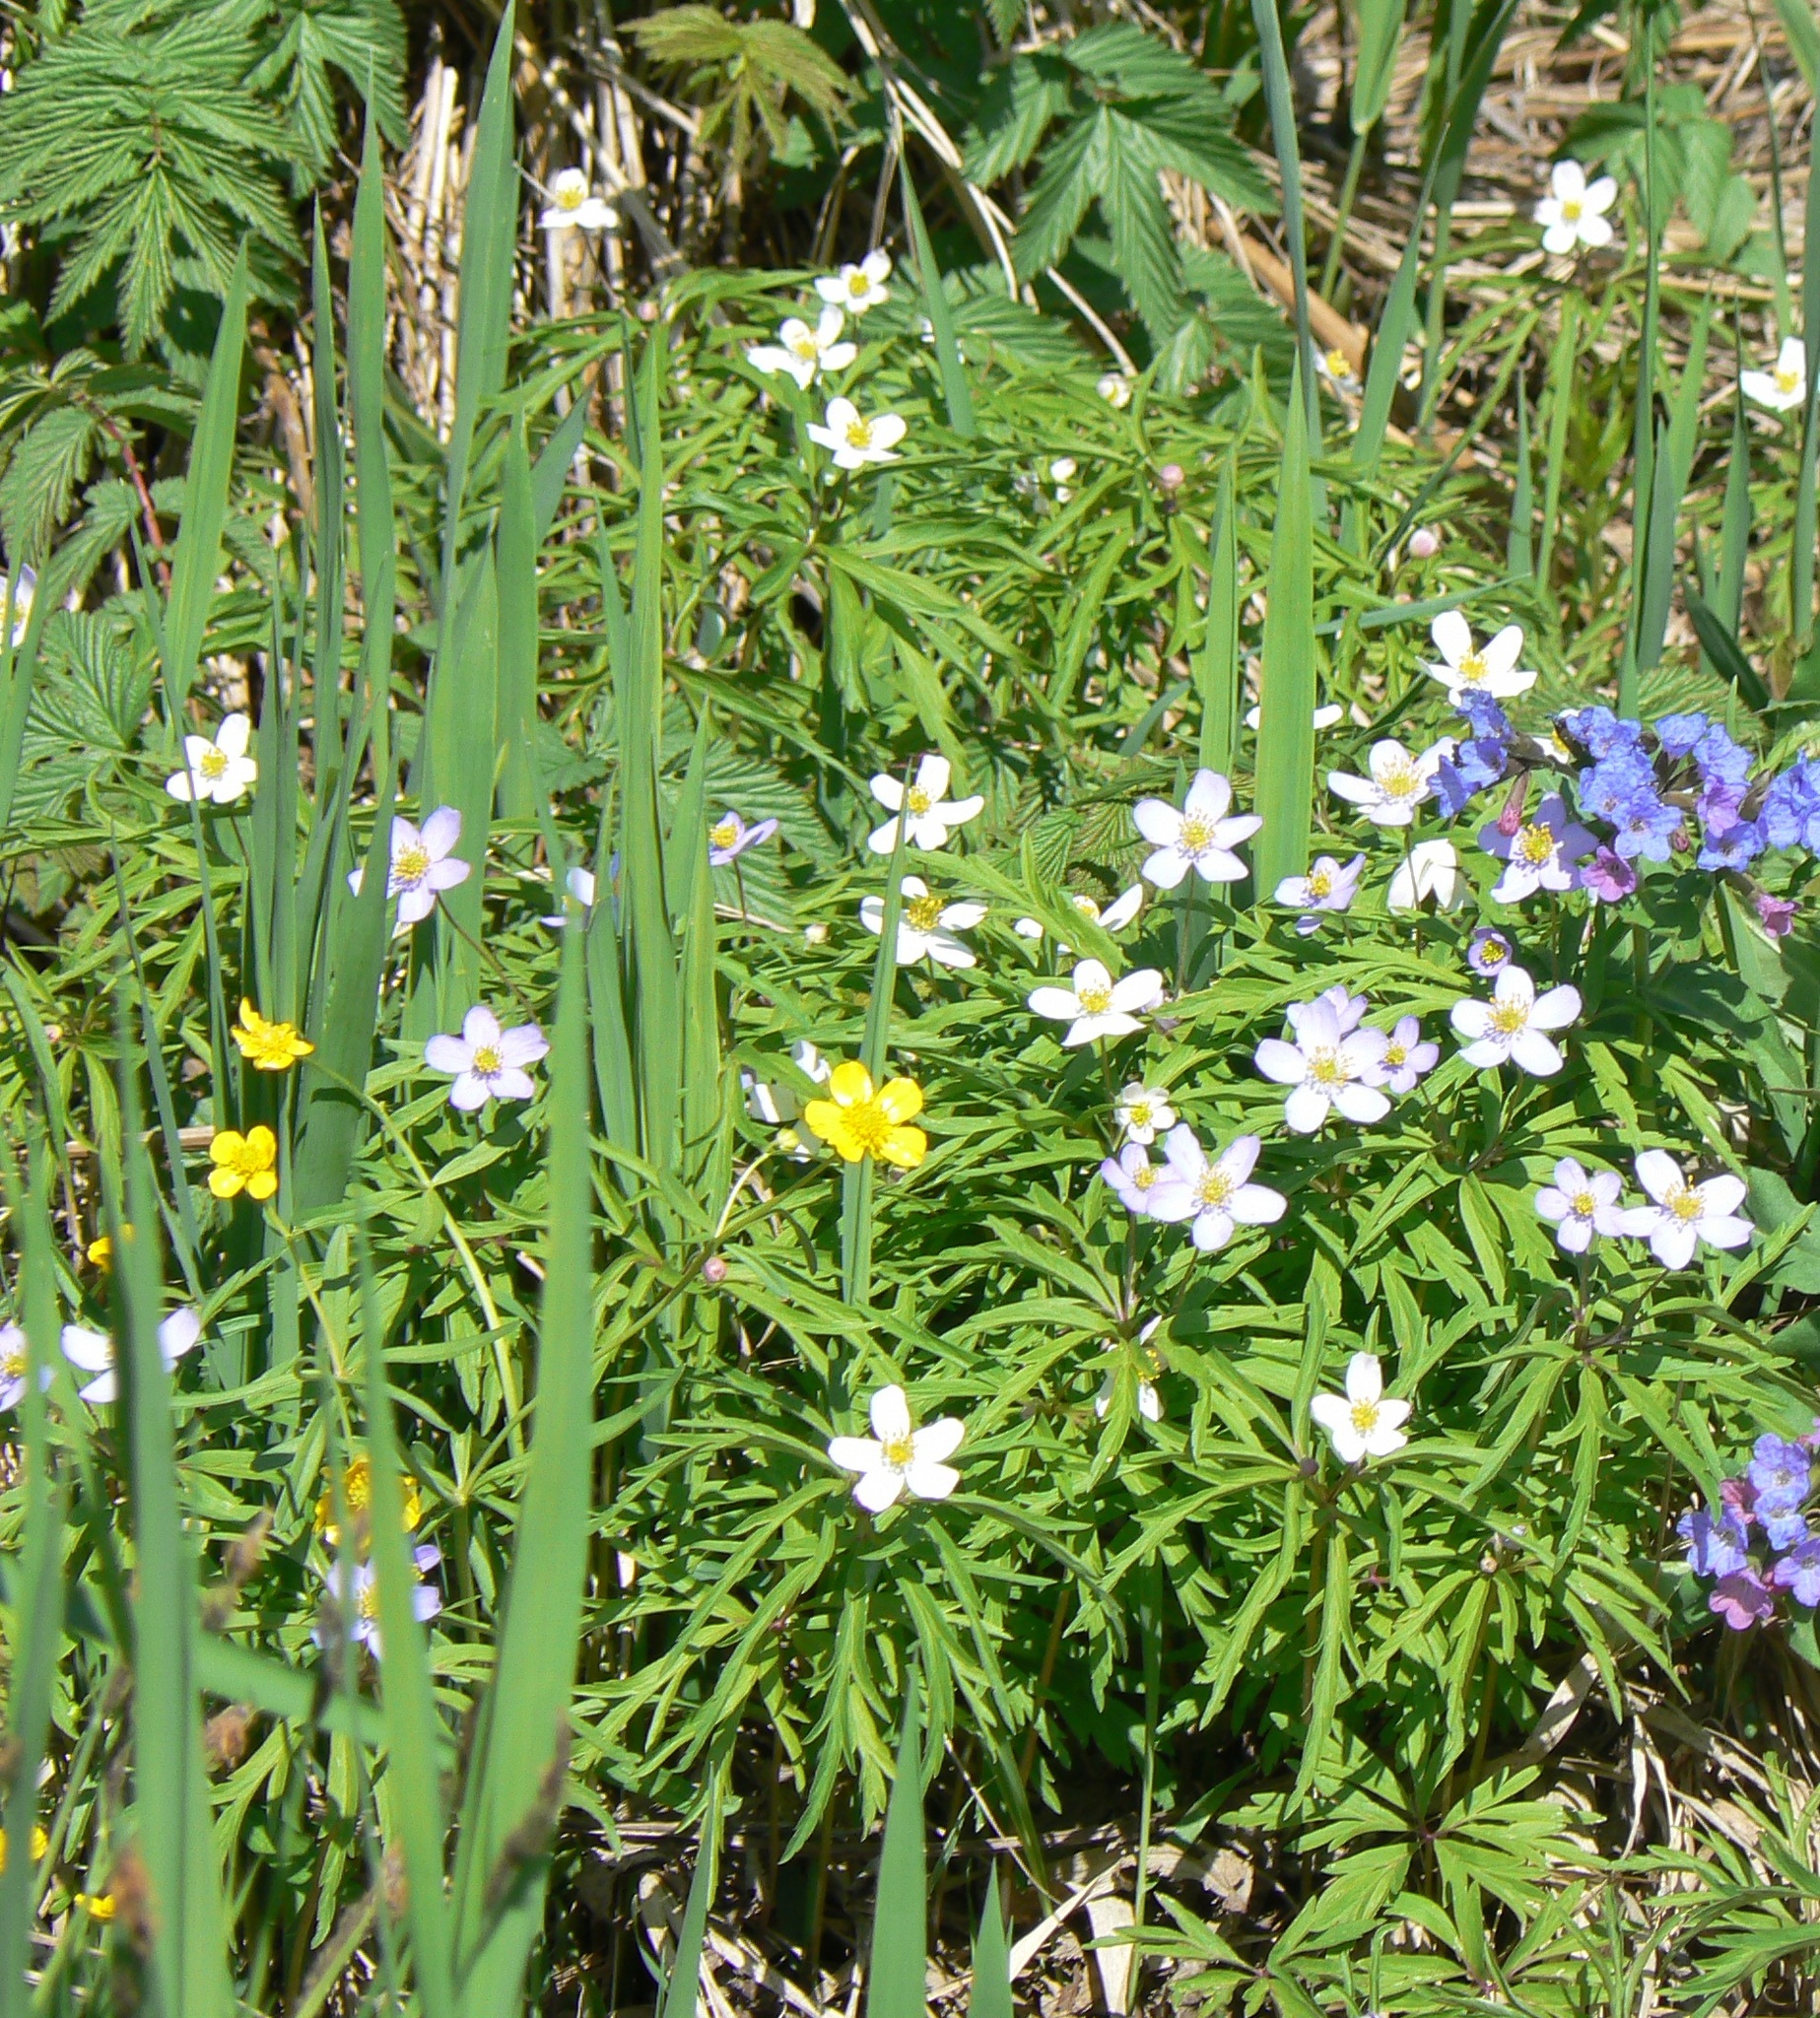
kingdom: Plantae
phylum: Tracheophyta
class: Magnoliopsida
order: Ranunculales
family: Ranunculaceae
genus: Anemone
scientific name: Anemone caerulea
